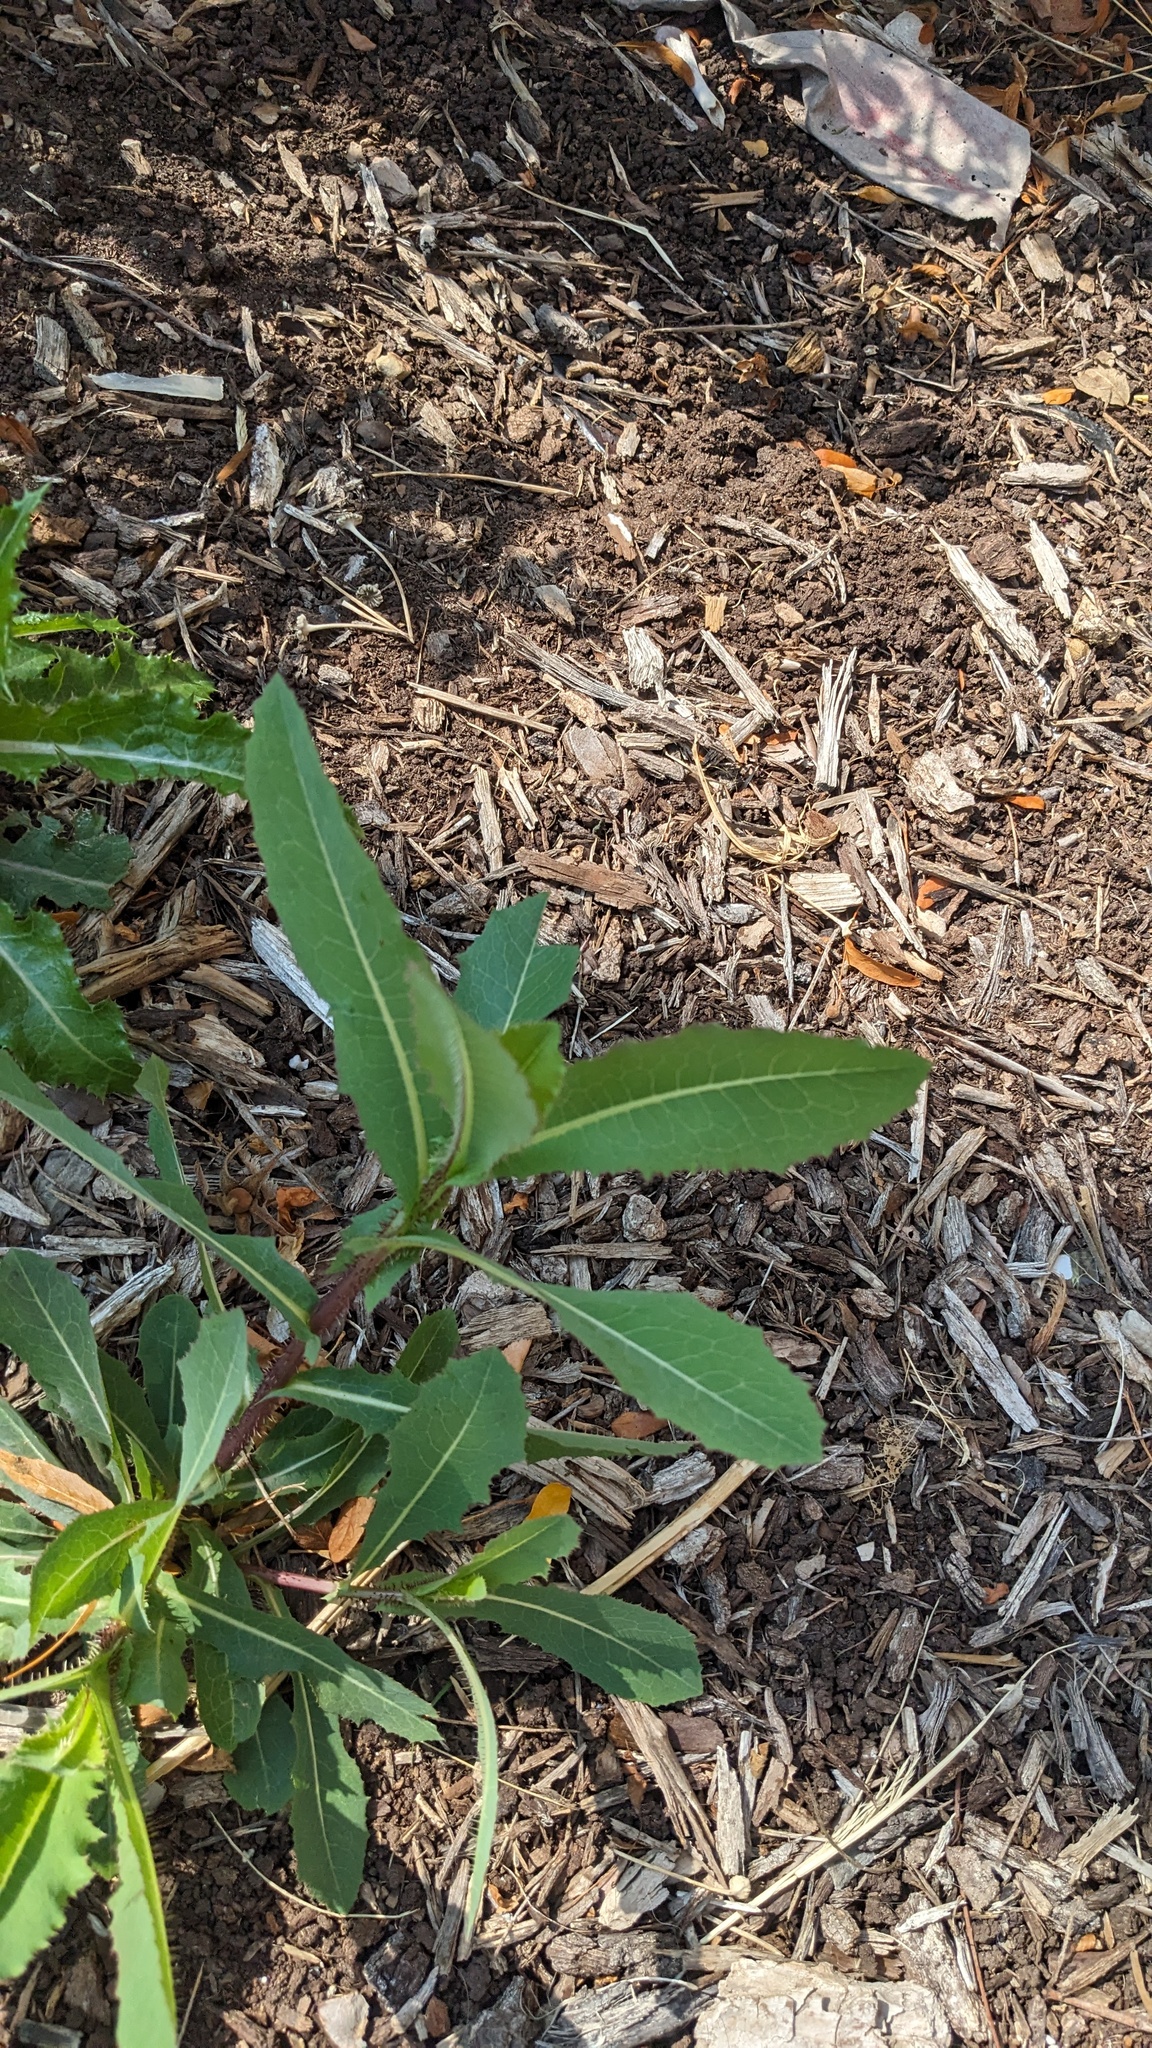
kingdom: Plantae
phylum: Tracheophyta
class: Magnoliopsida
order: Asterales
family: Asteraceae
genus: Lactuca
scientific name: Lactuca serriola
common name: Prickly lettuce
